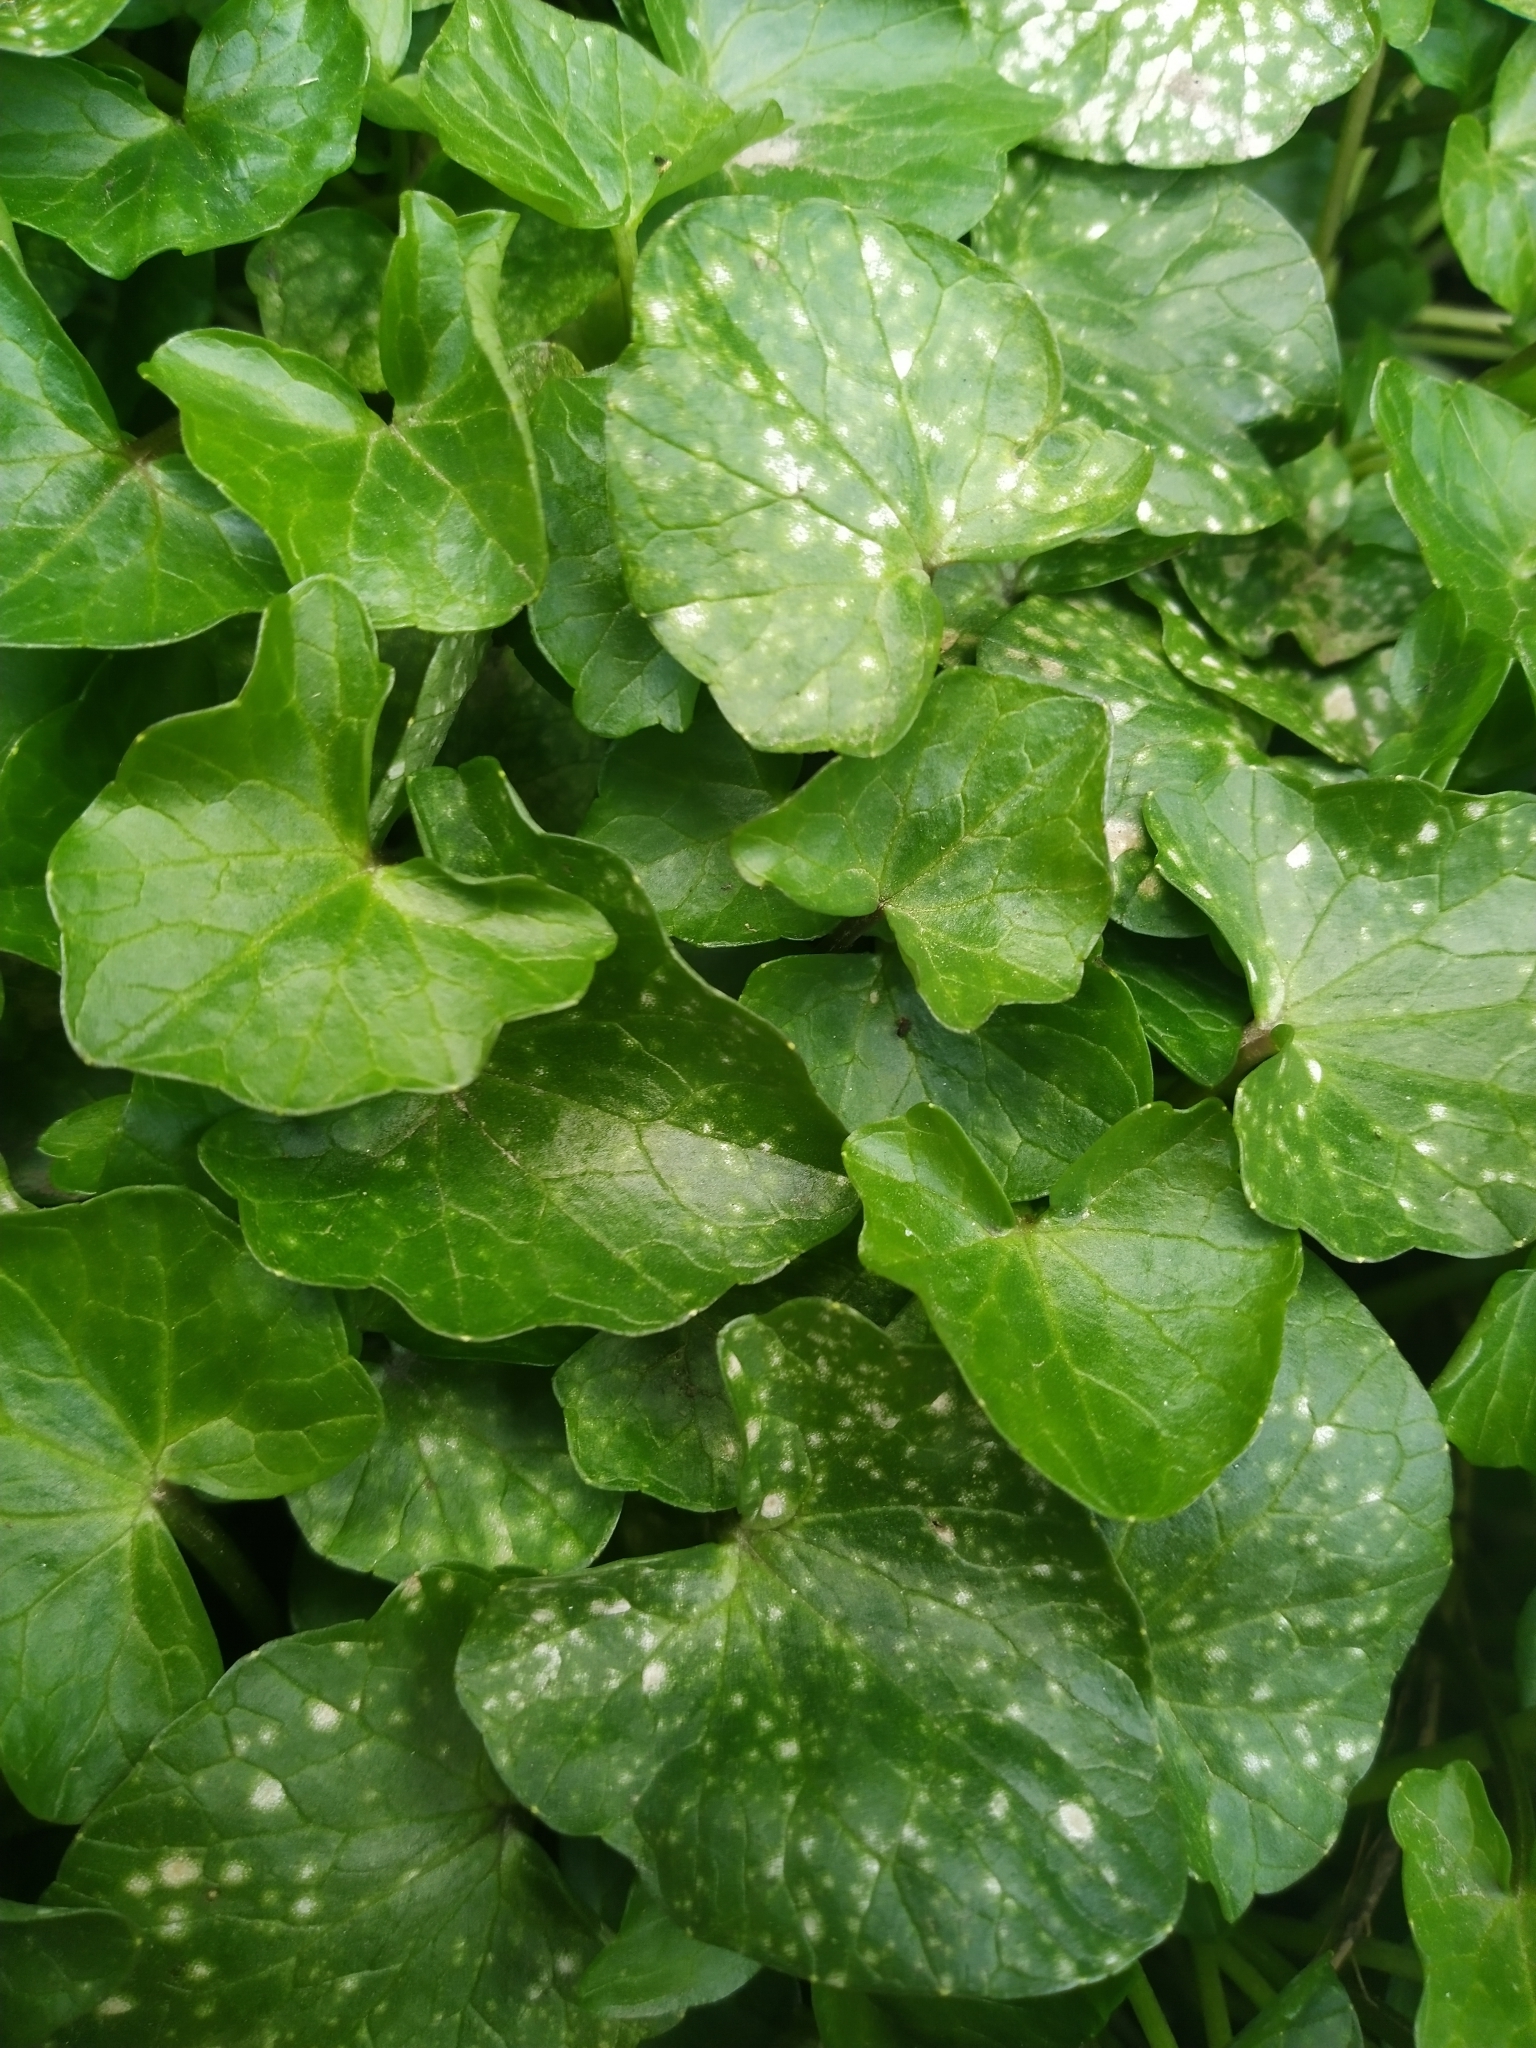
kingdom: Plantae
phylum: Tracheophyta
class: Magnoliopsida
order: Ranunculales
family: Ranunculaceae
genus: Ficaria
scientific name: Ficaria verna
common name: Lesser celandine
